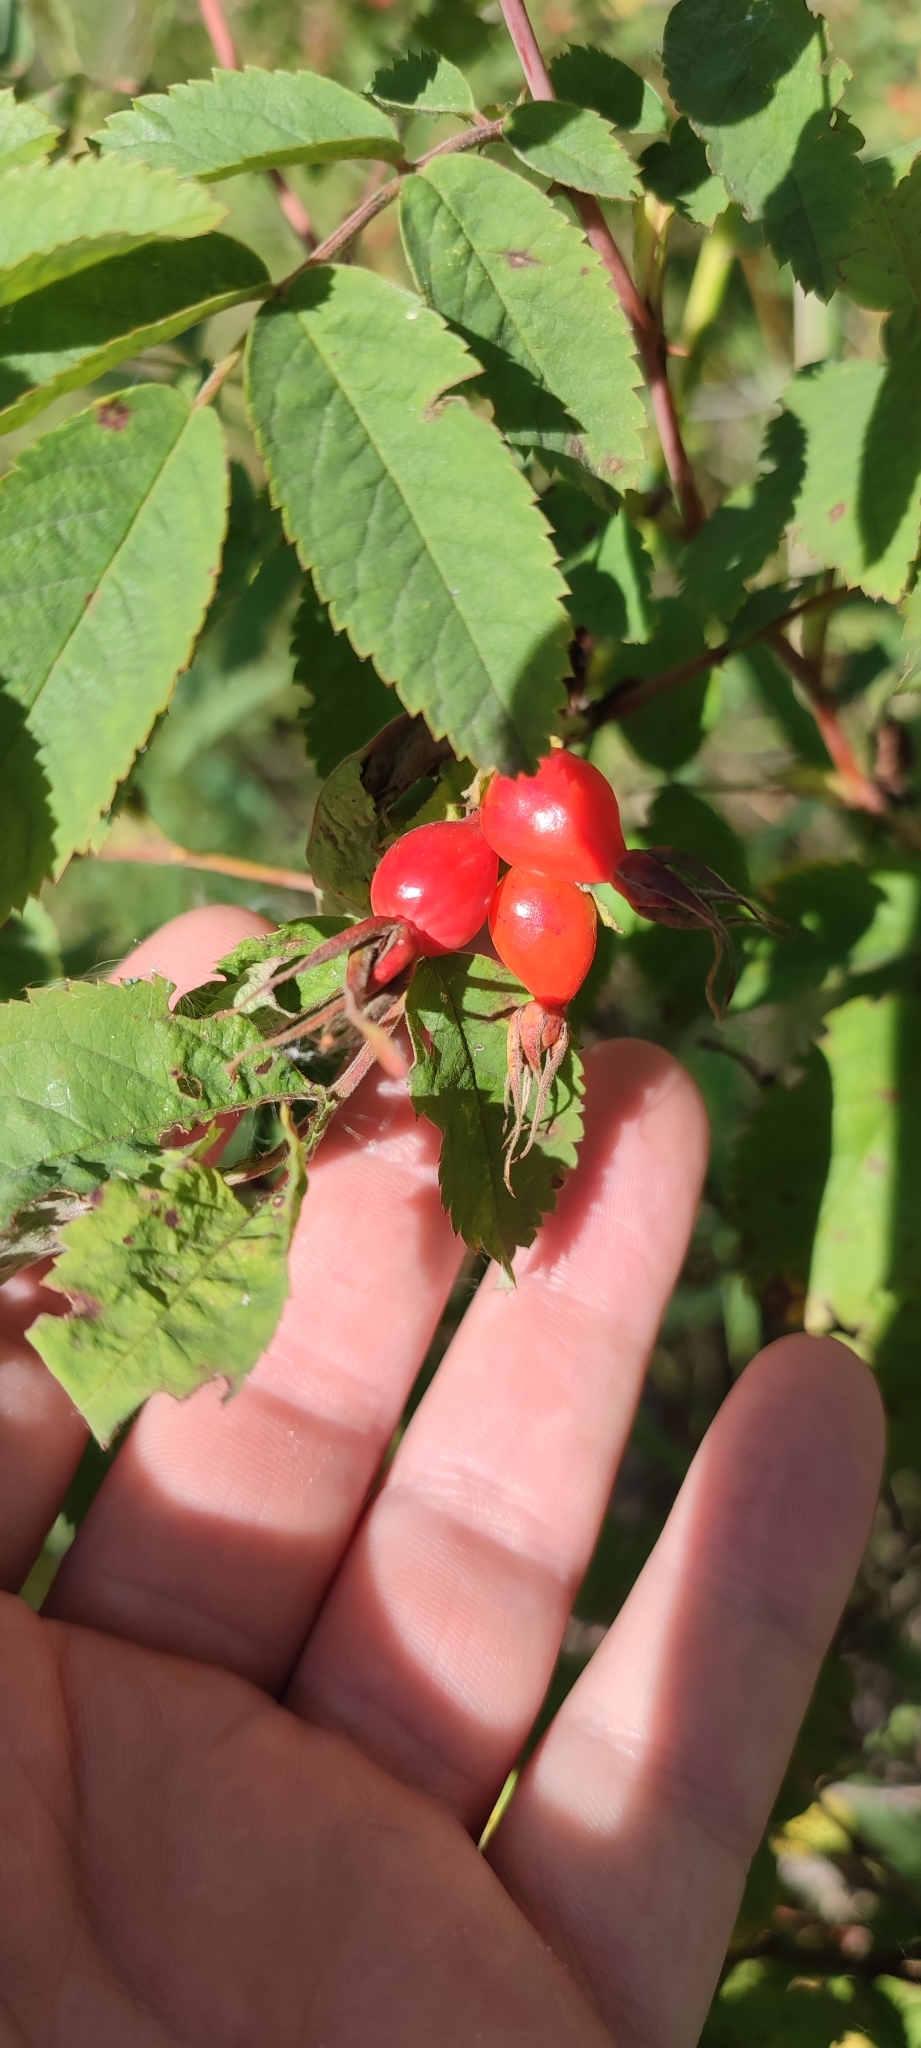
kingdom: Plantae
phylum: Tracheophyta
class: Magnoliopsida
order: Rosales
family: Rosaceae
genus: Rosa
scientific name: Rosa majalis
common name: Cinnamon rose
